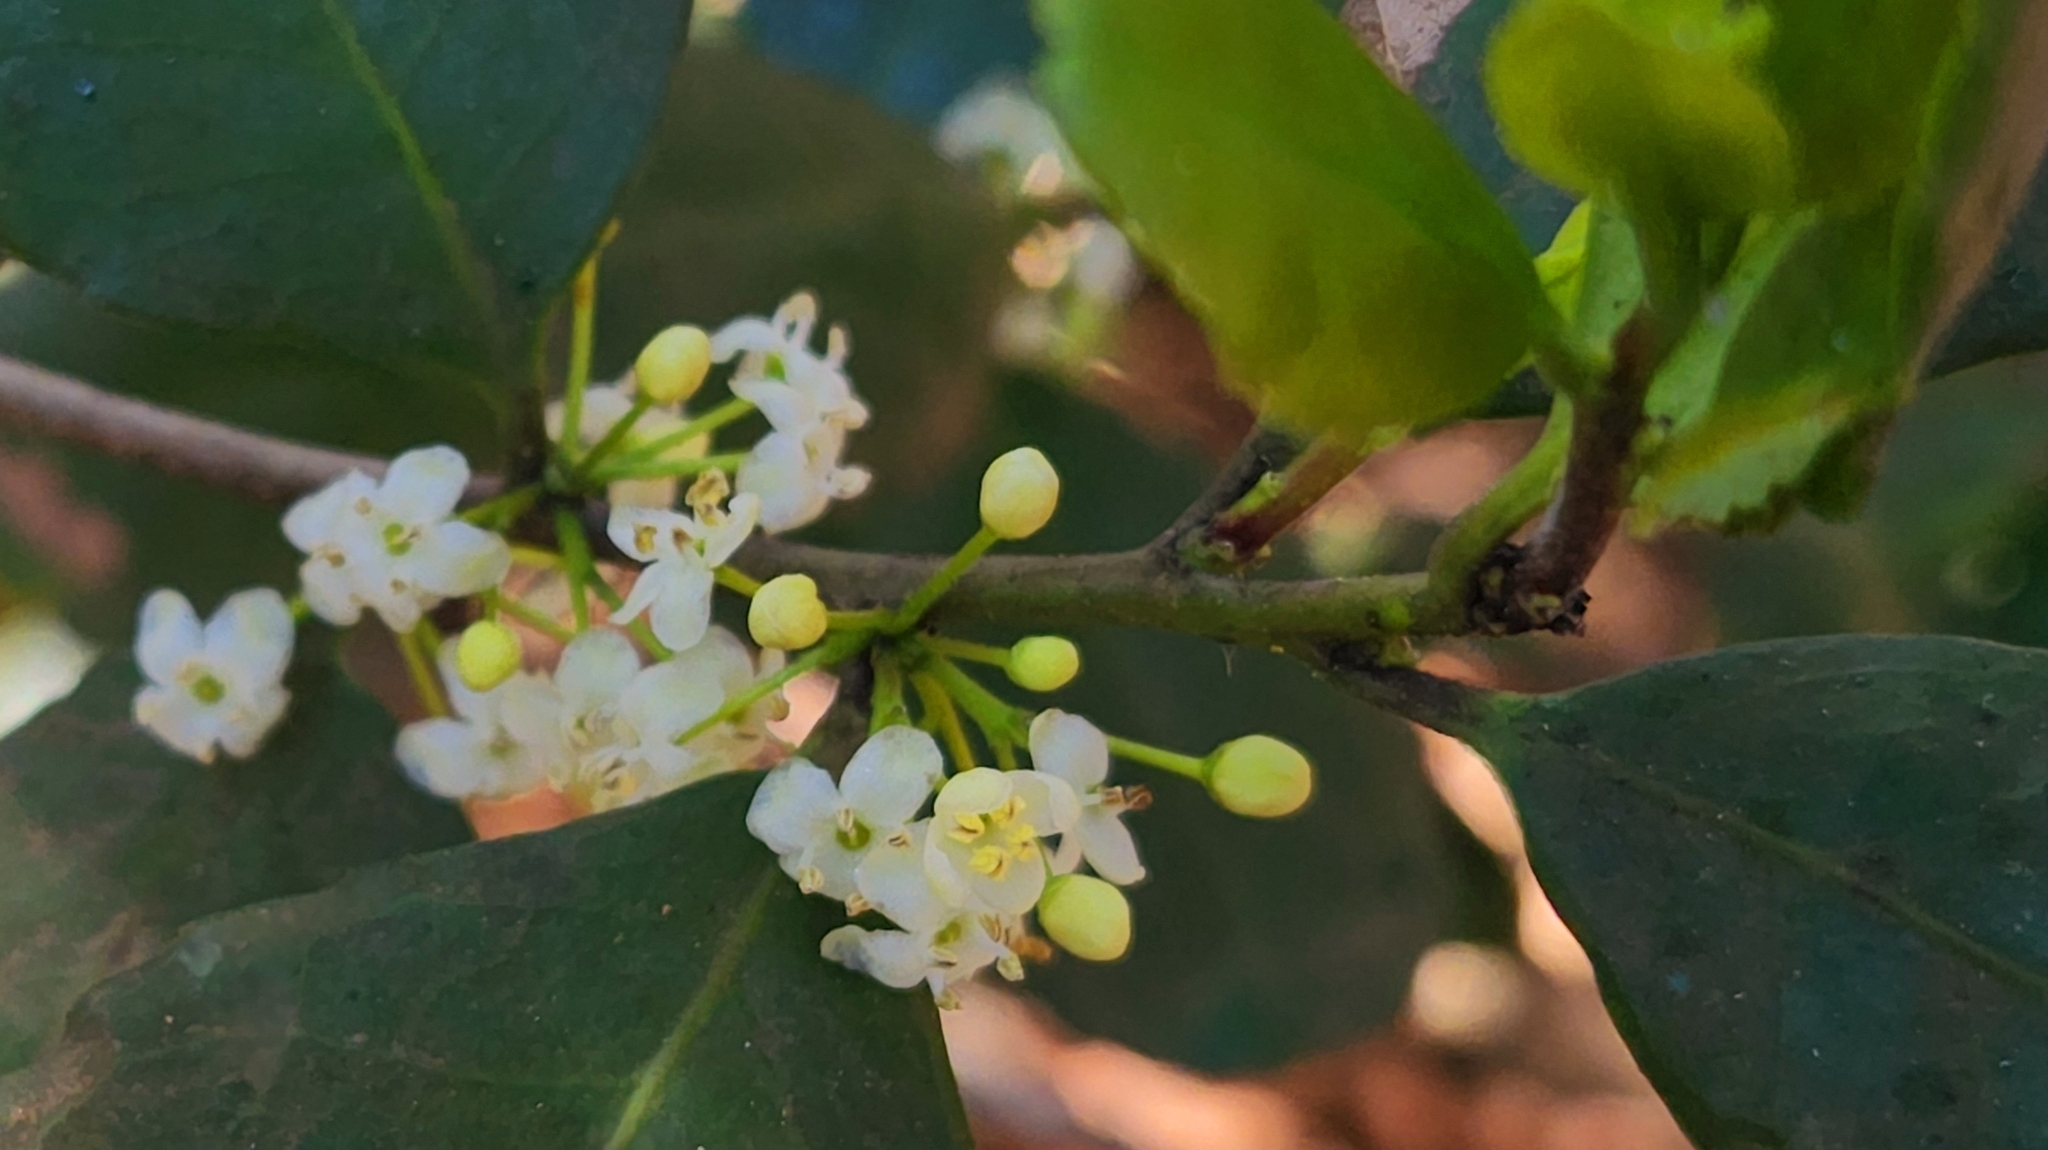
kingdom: Plantae
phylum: Tracheophyta
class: Magnoliopsida
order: Aquifoliales
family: Aquifoliaceae
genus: Ilex
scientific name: Ilex socorroensis
